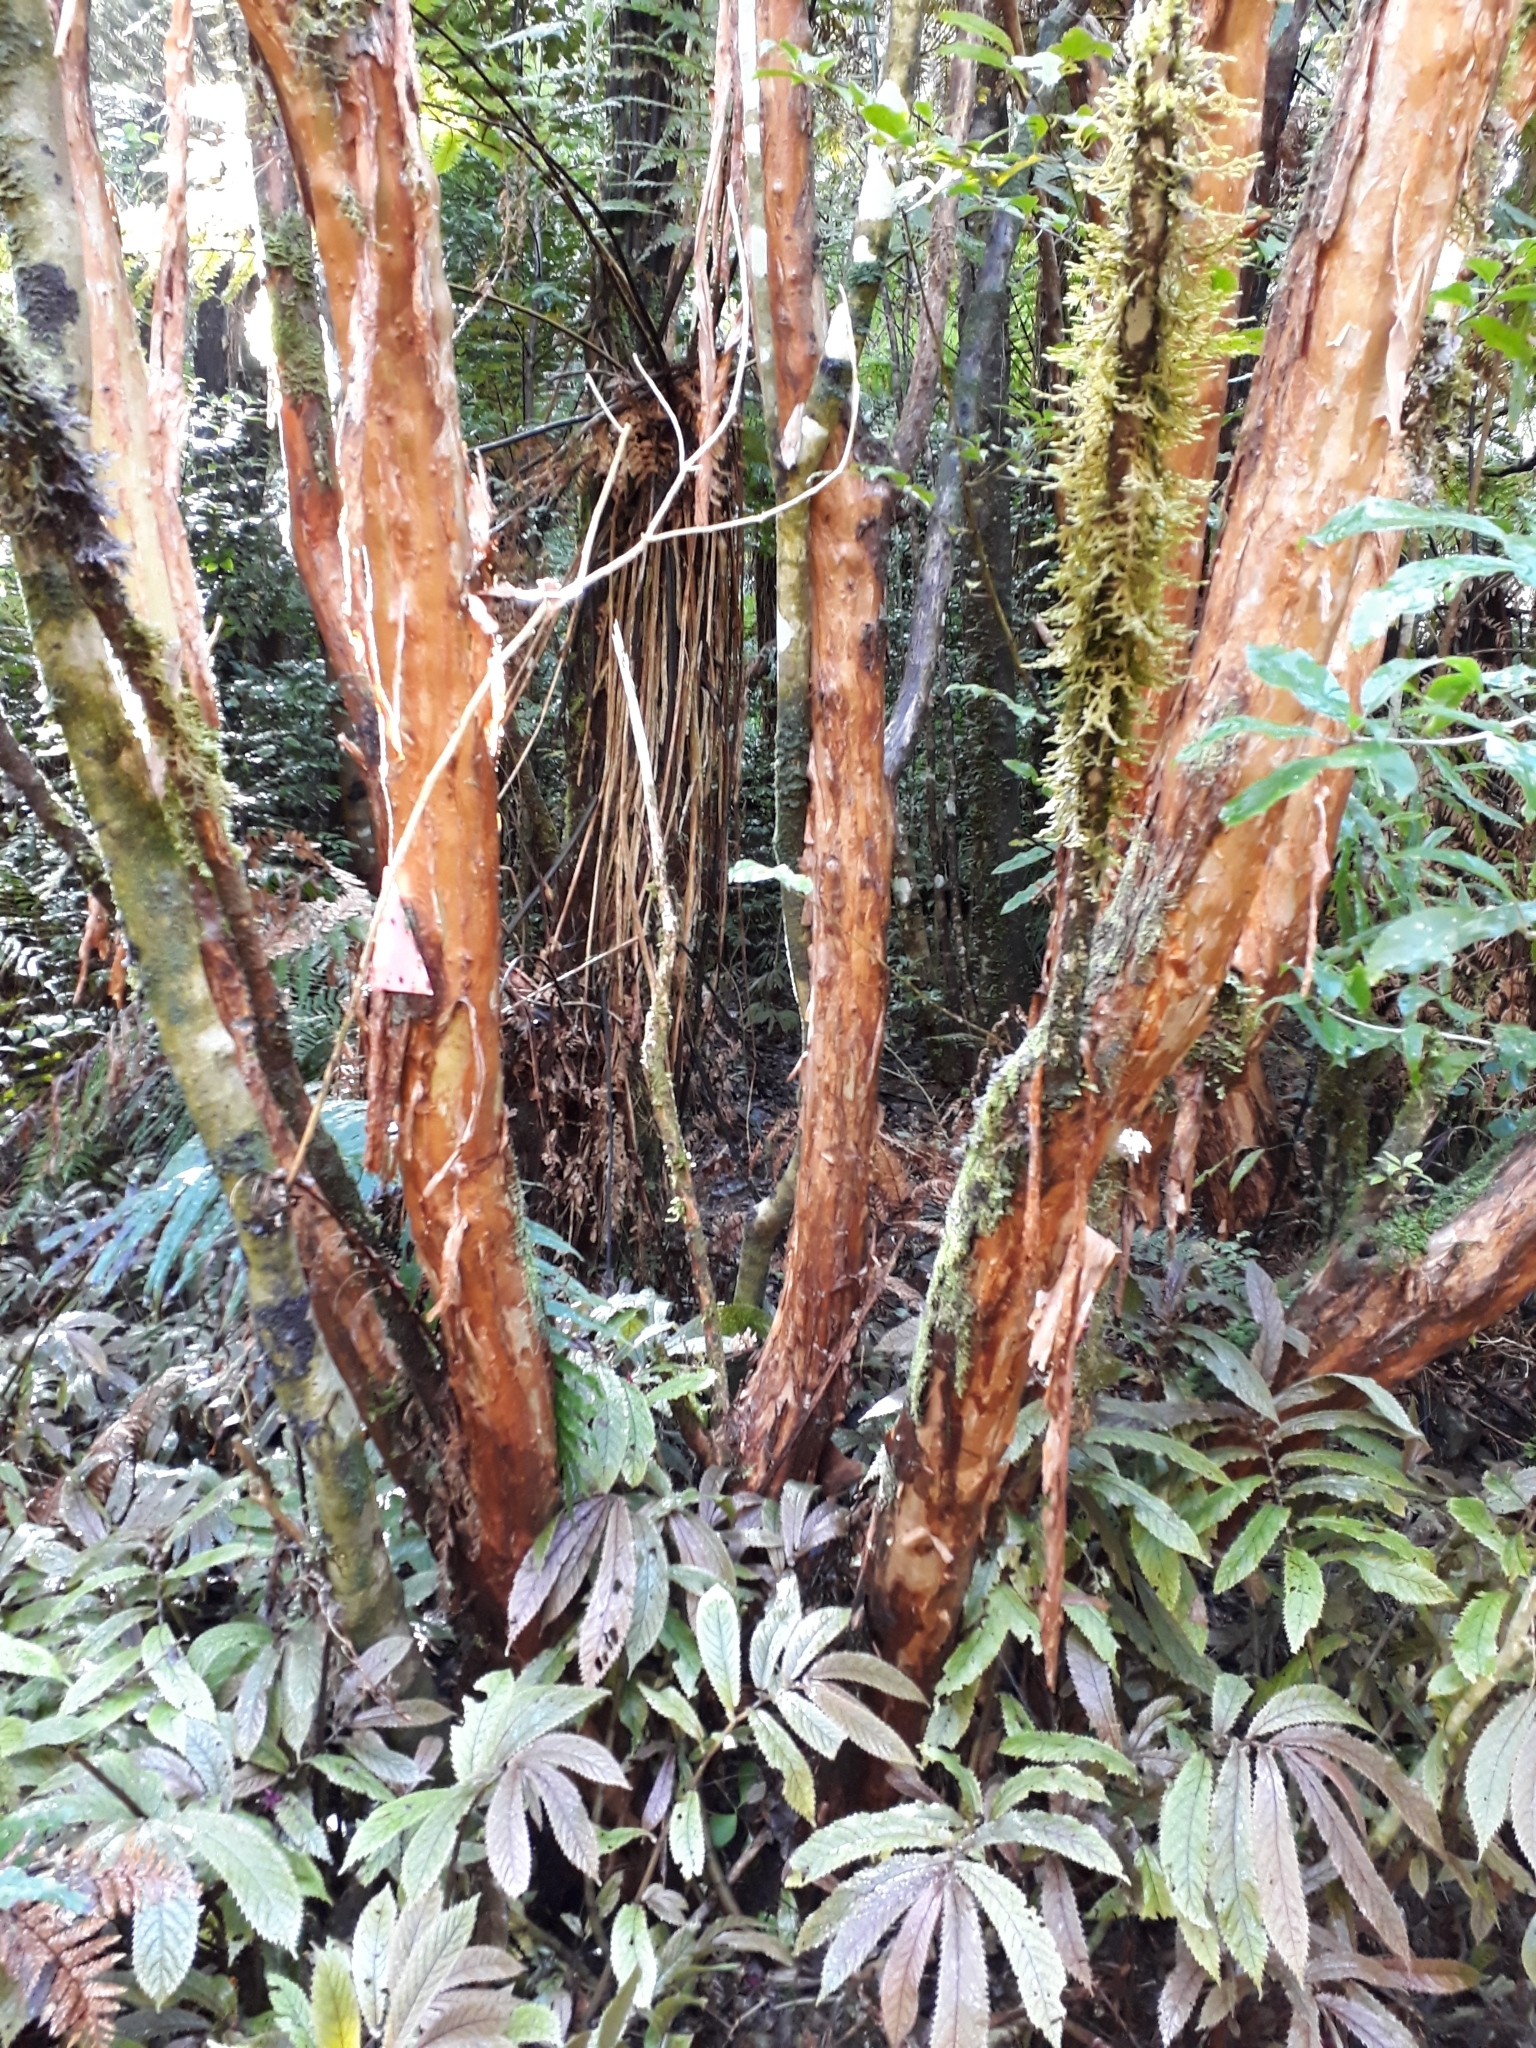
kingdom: Plantae
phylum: Tracheophyta
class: Magnoliopsida
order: Myrtales
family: Onagraceae
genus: Fuchsia
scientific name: Fuchsia excorticata
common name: Tree fuchsia
